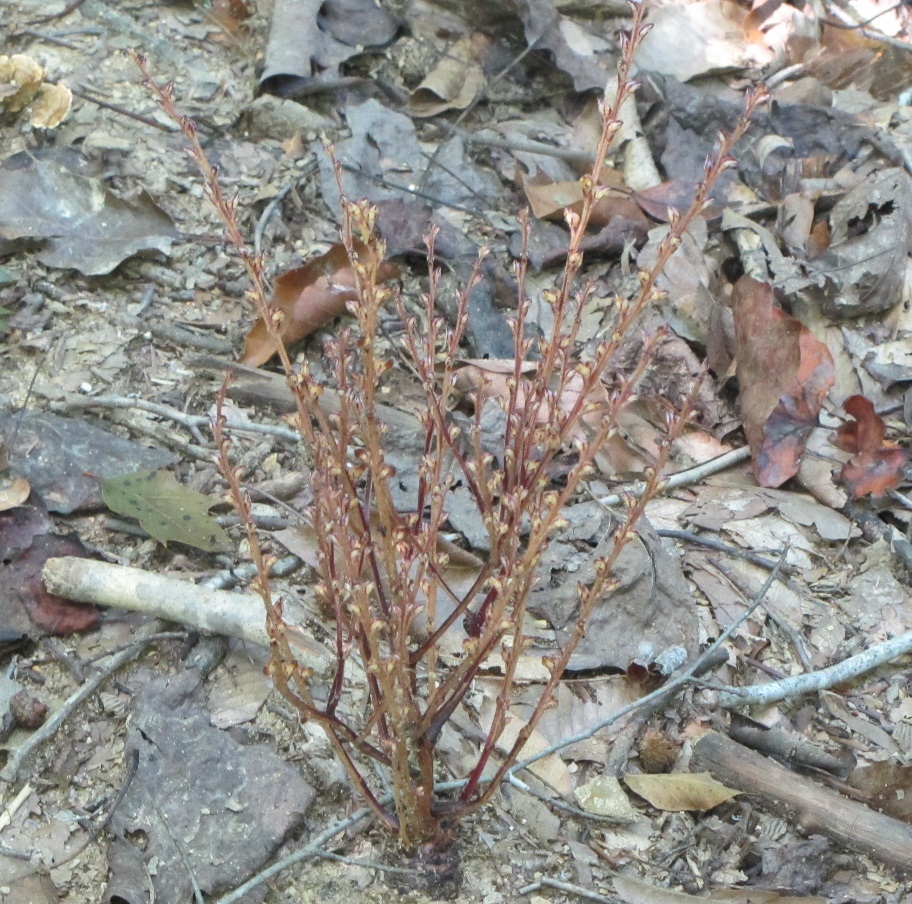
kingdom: Plantae
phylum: Tracheophyta
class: Magnoliopsida
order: Lamiales
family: Orobanchaceae
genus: Epifagus
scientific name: Epifagus virginiana
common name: Beechdrops
